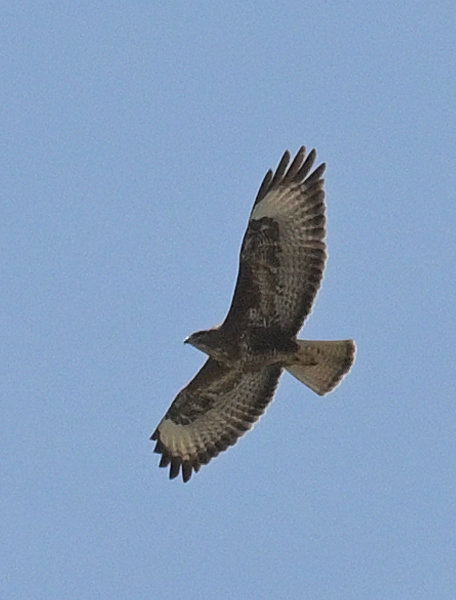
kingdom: Animalia
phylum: Chordata
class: Aves
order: Accipitriformes
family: Accipitridae
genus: Buteo
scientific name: Buteo buteo
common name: Common buzzard
